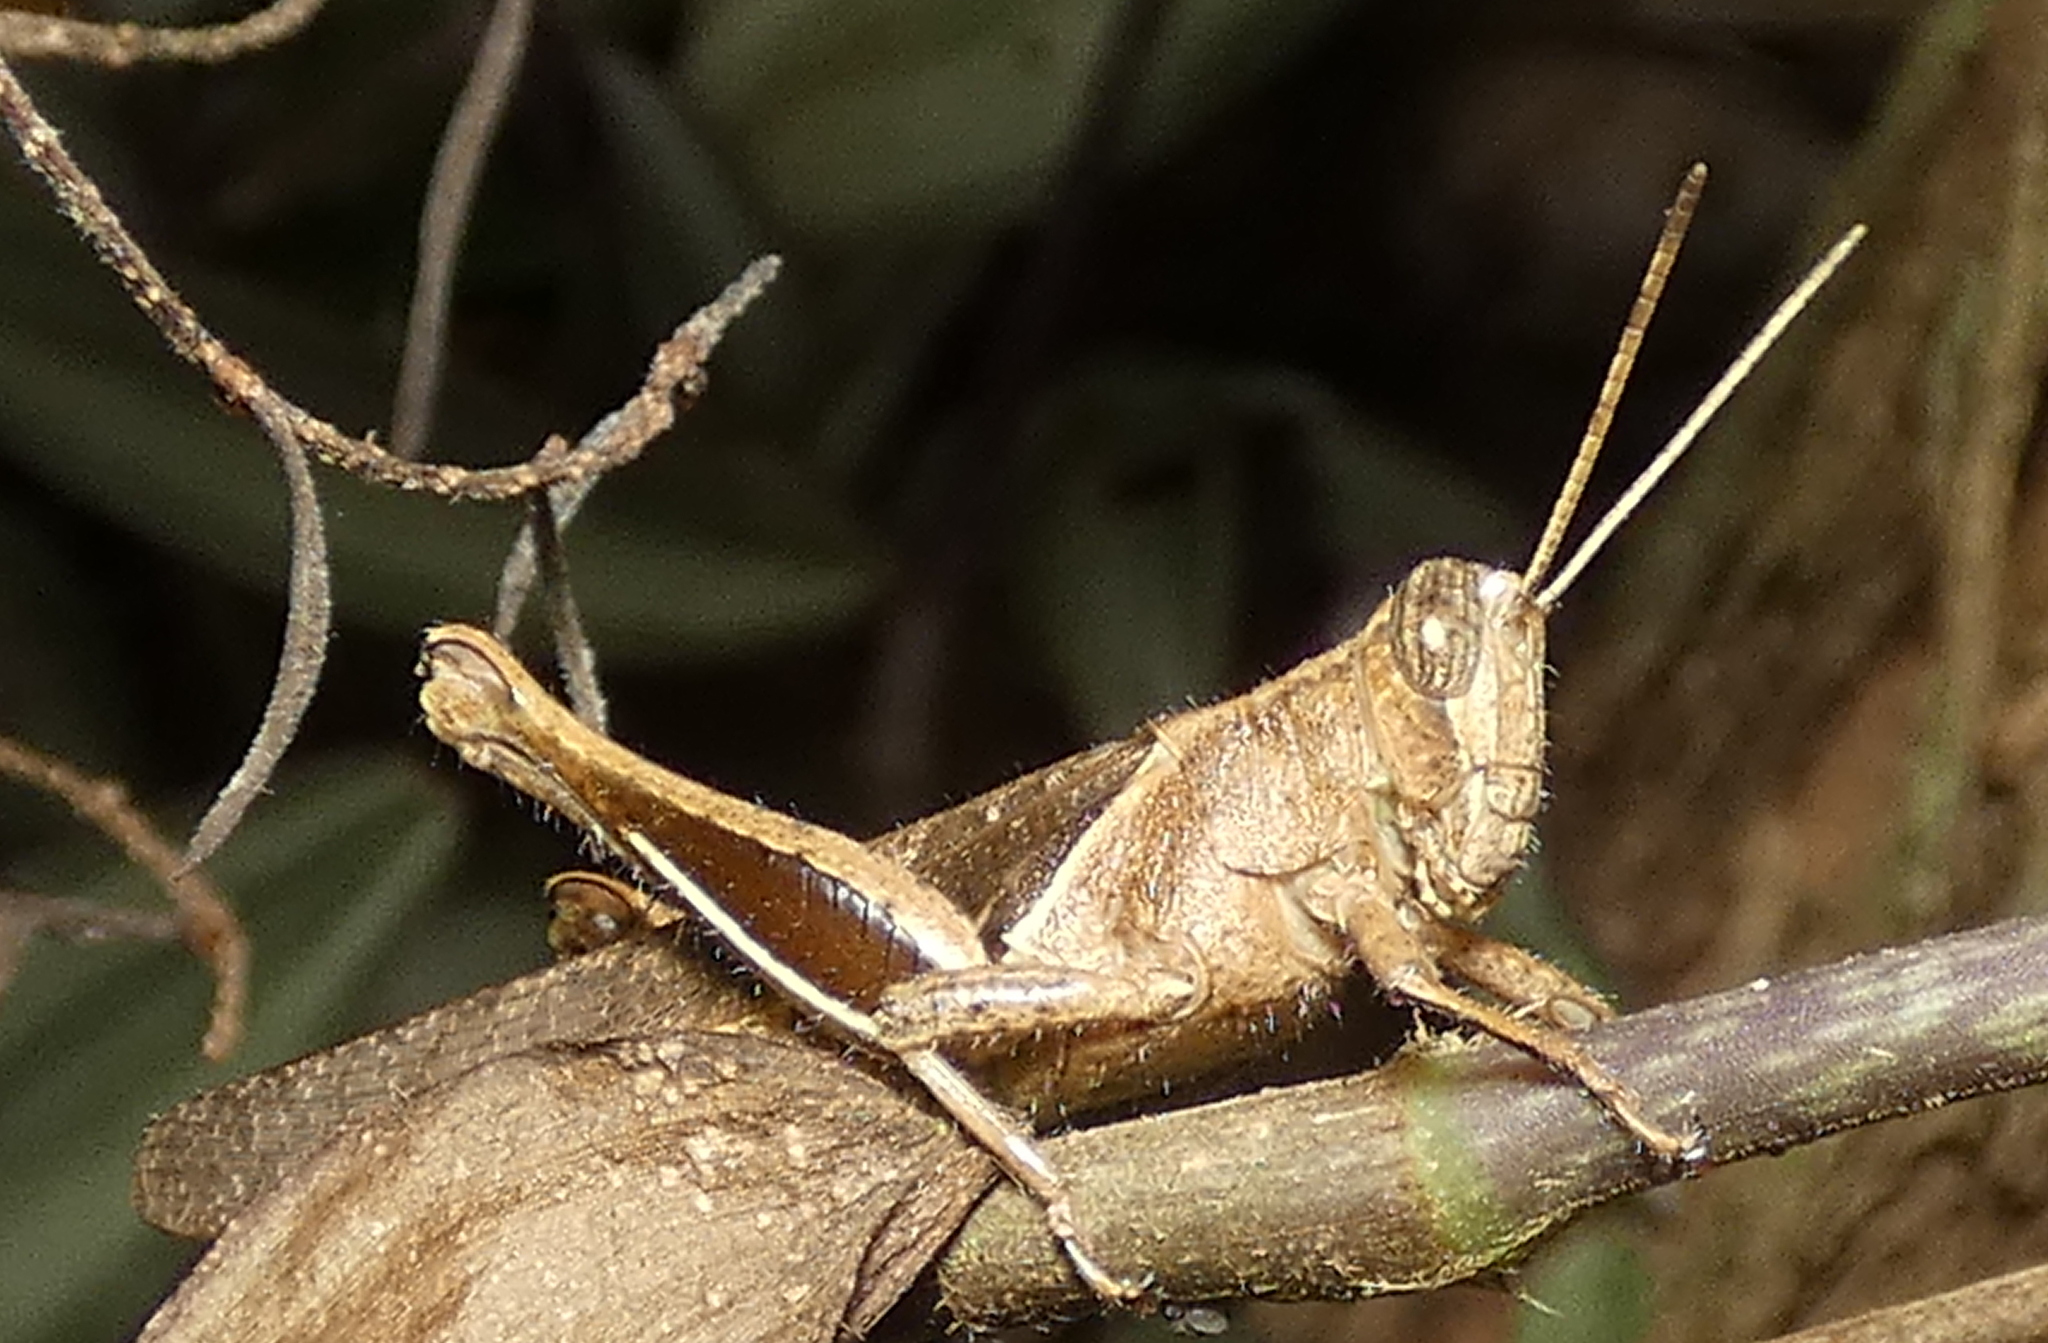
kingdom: Animalia
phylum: Arthropoda
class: Insecta
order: Orthoptera
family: Acrididae
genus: Abracris
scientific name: Abracris flavolineata
